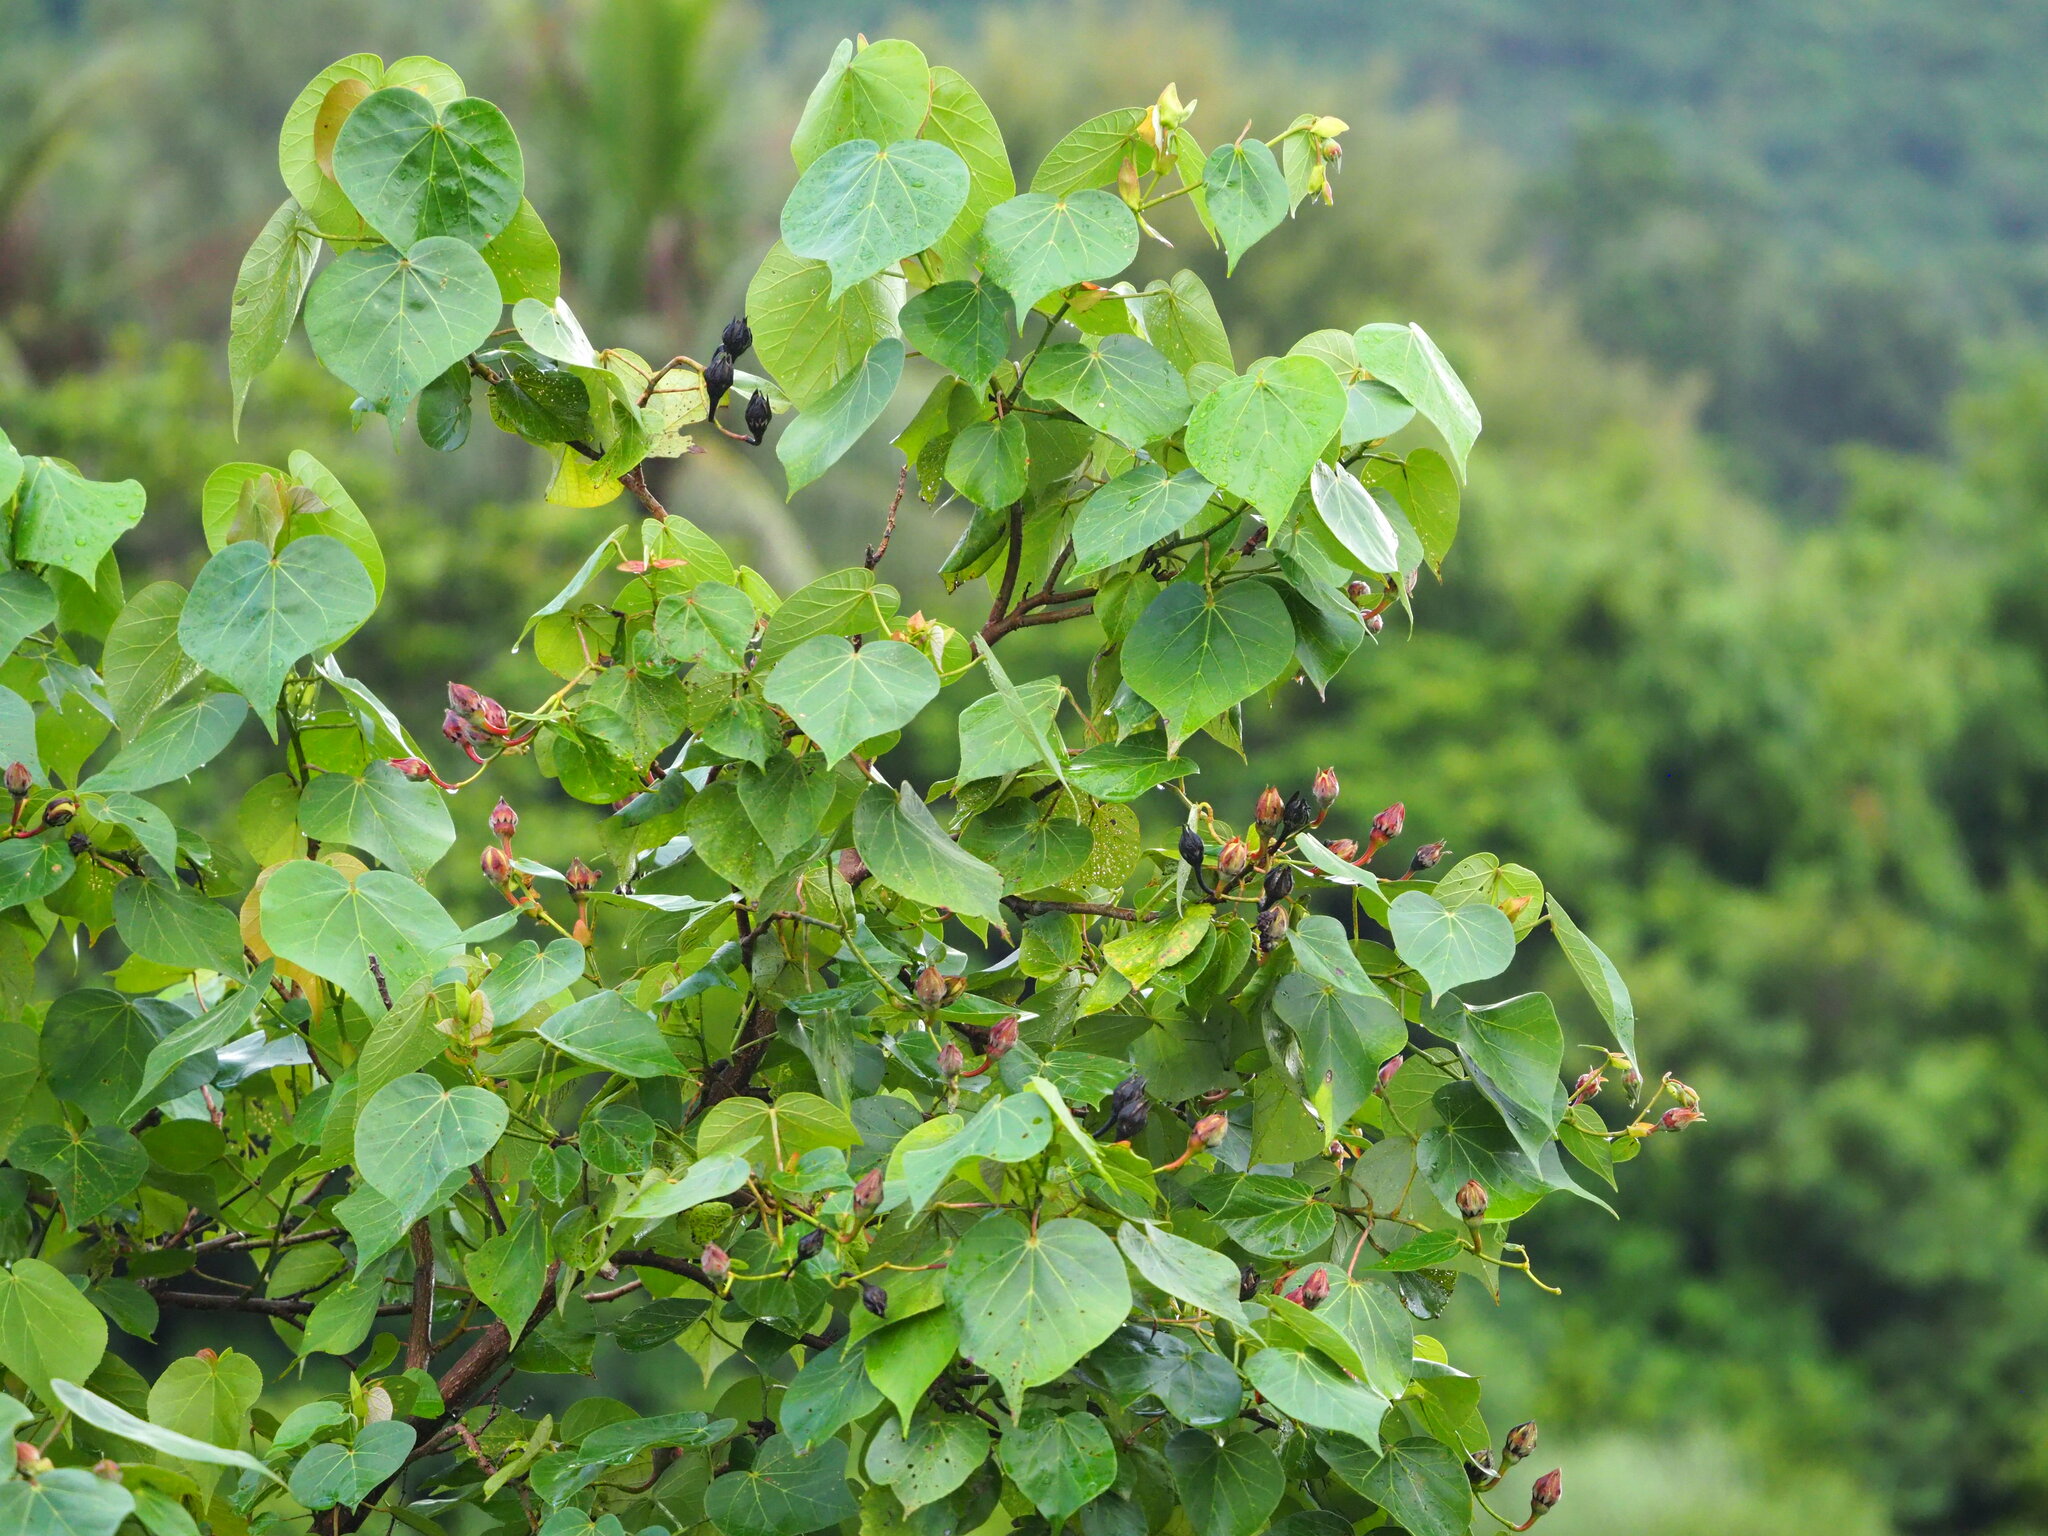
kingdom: Plantae
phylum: Tracheophyta
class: Magnoliopsida
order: Malvales
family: Malvaceae
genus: Talipariti
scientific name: Talipariti tiliaceum
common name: Sea hibiscus
